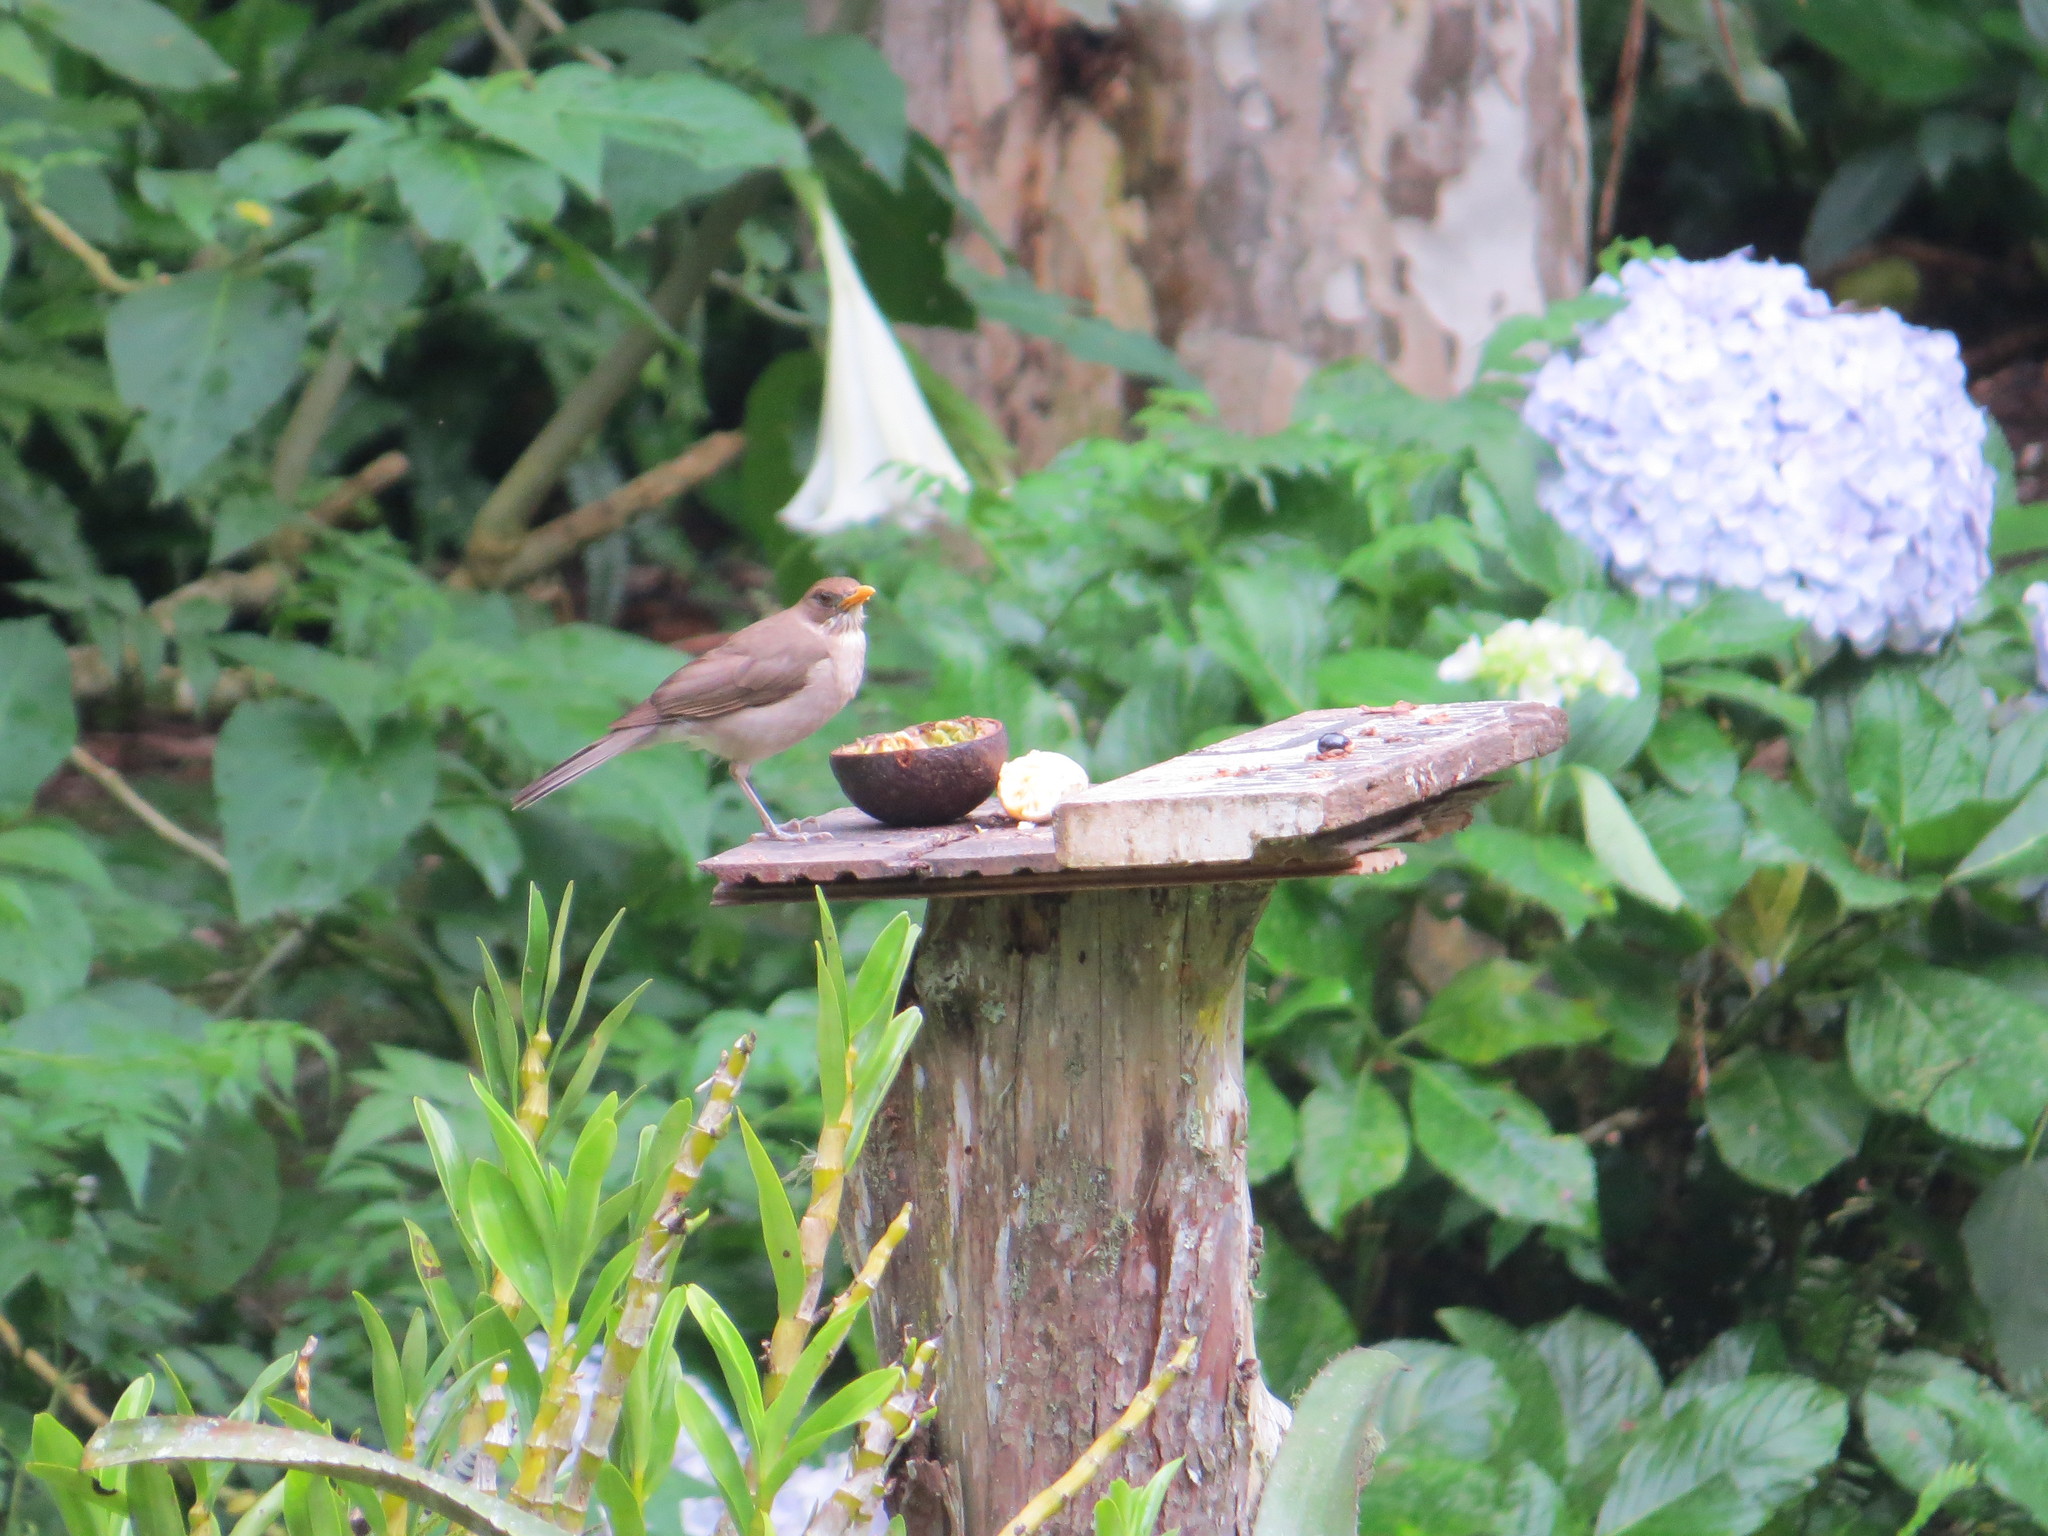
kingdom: Animalia
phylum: Chordata
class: Aves
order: Passeriformes
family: Turdidae
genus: Turdus
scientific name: Turdus amaurochalinus
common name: Creamy-bellied thrush
